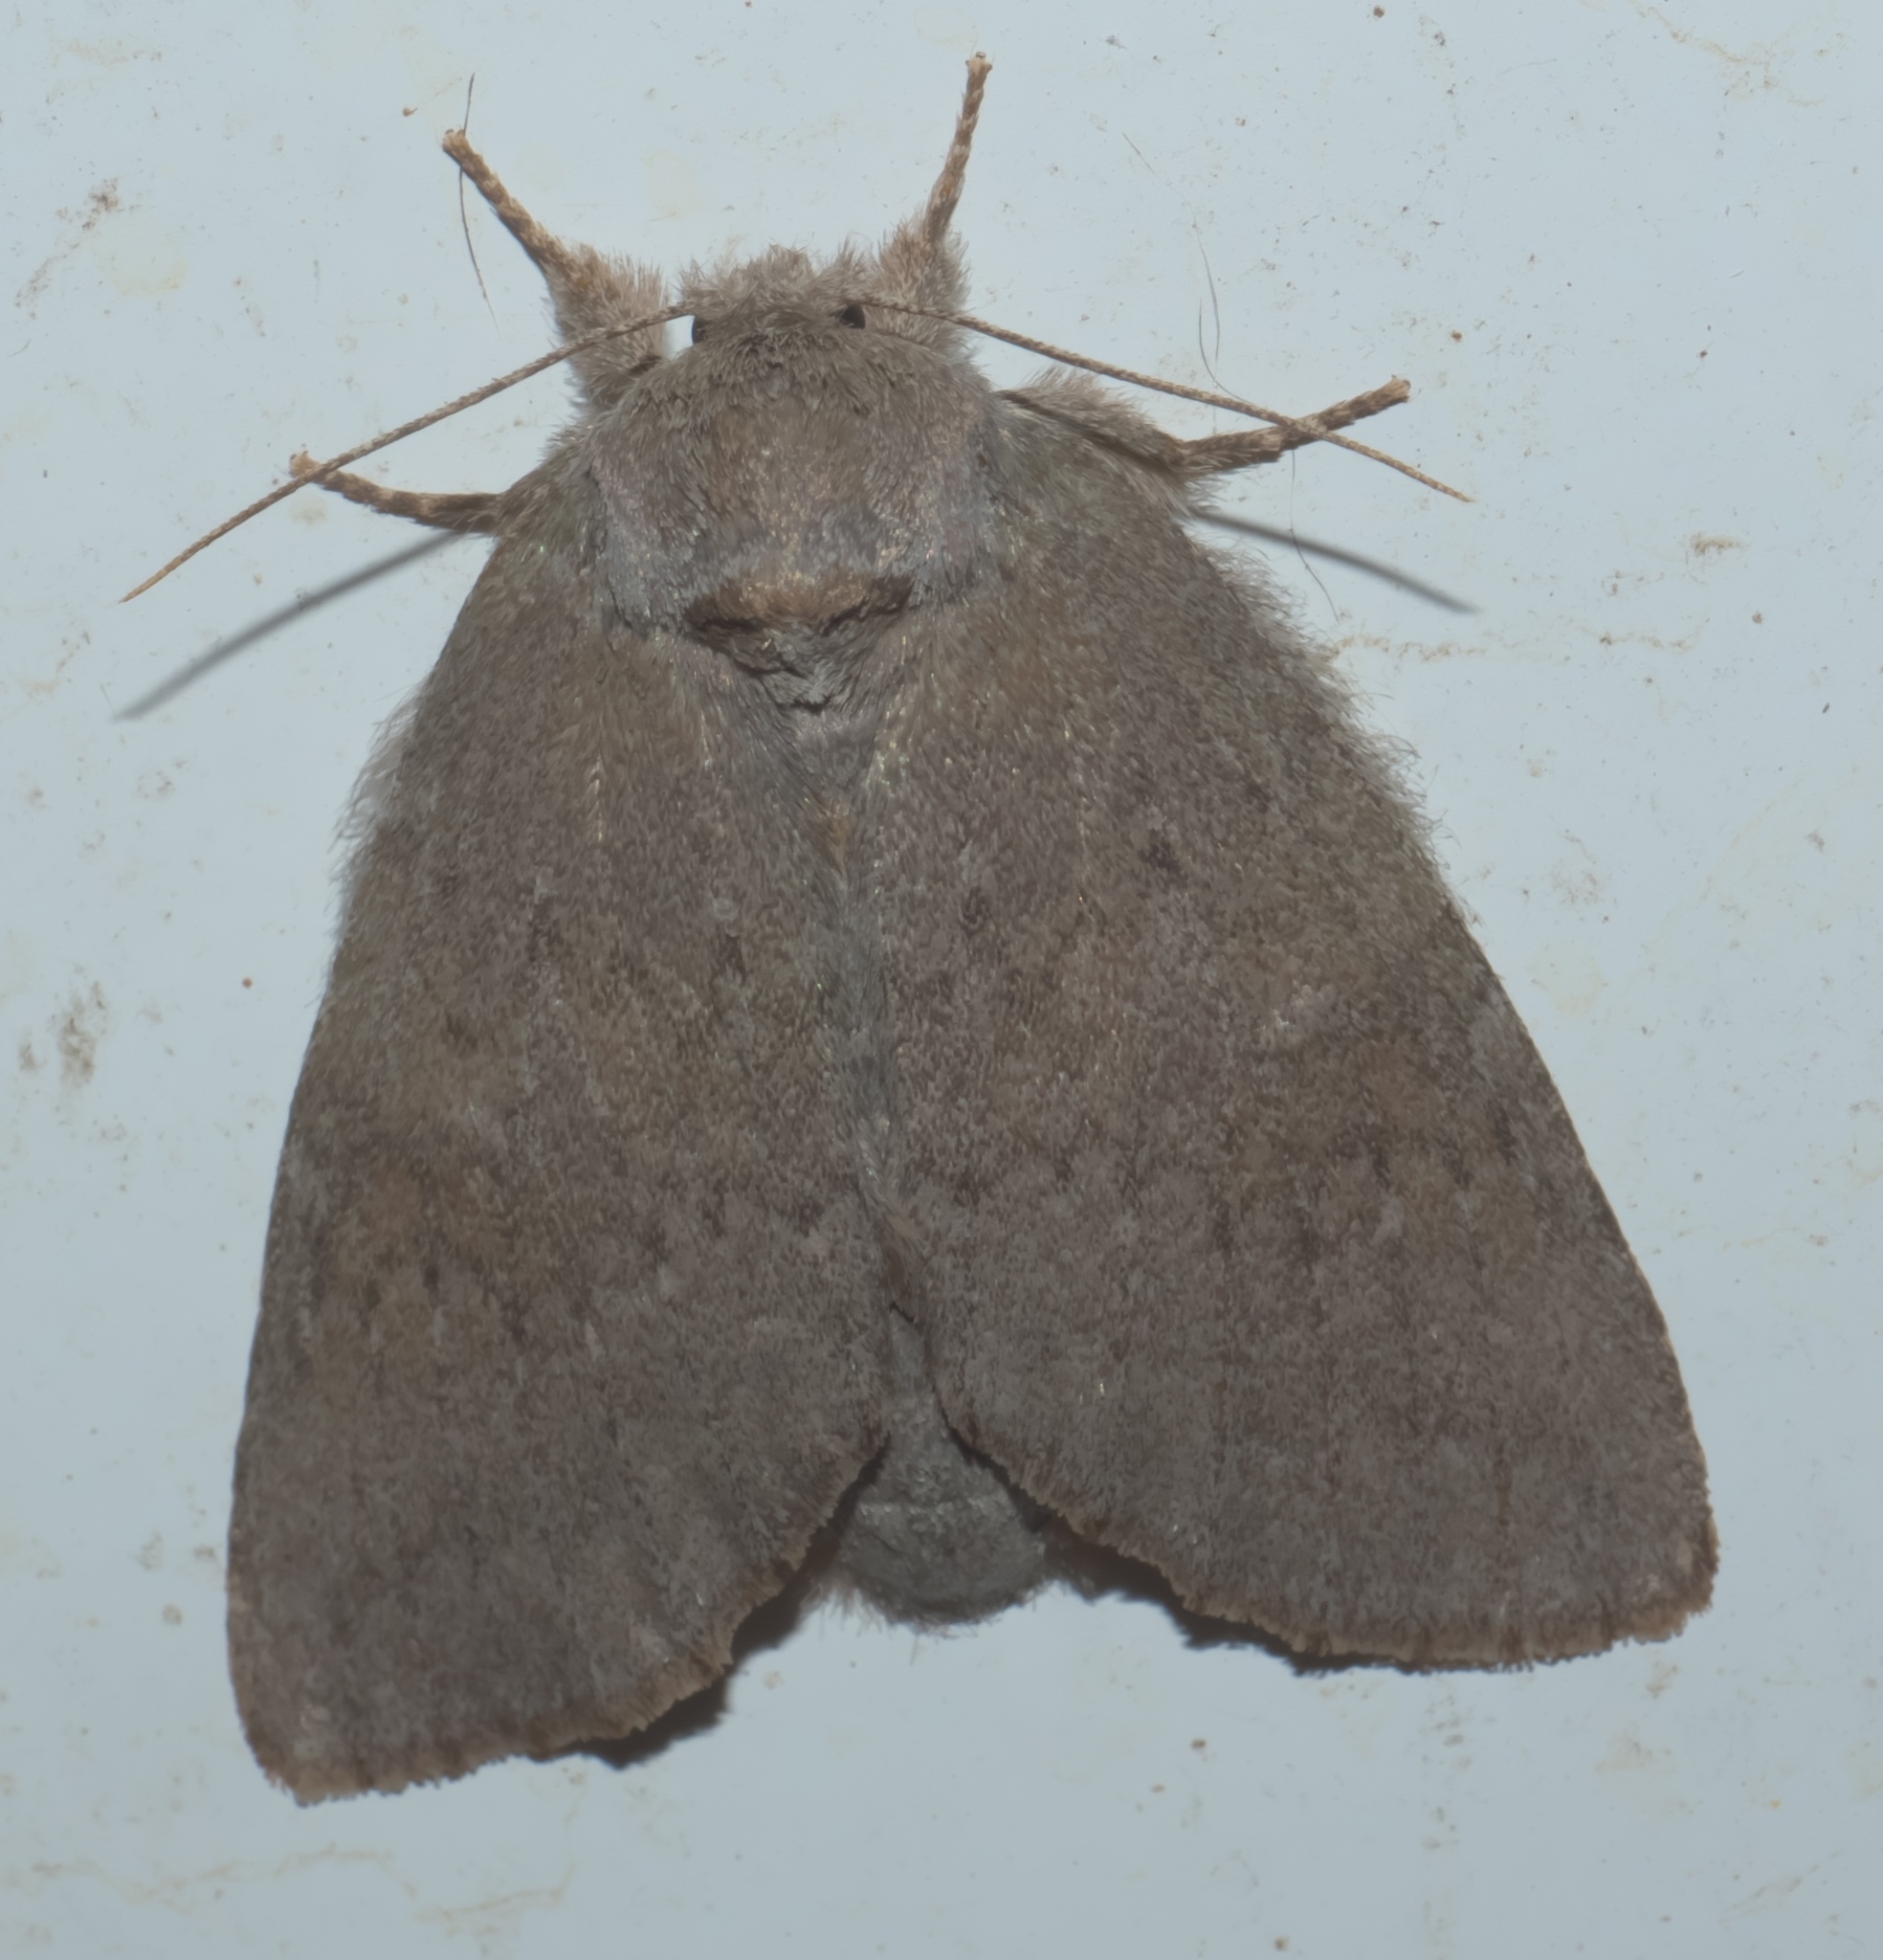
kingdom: Animalia
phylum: Arthropoda
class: Insecta
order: Lepidoptera
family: Notodontidae
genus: Misogada
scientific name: Misogada unicolor
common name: Drab prominent
